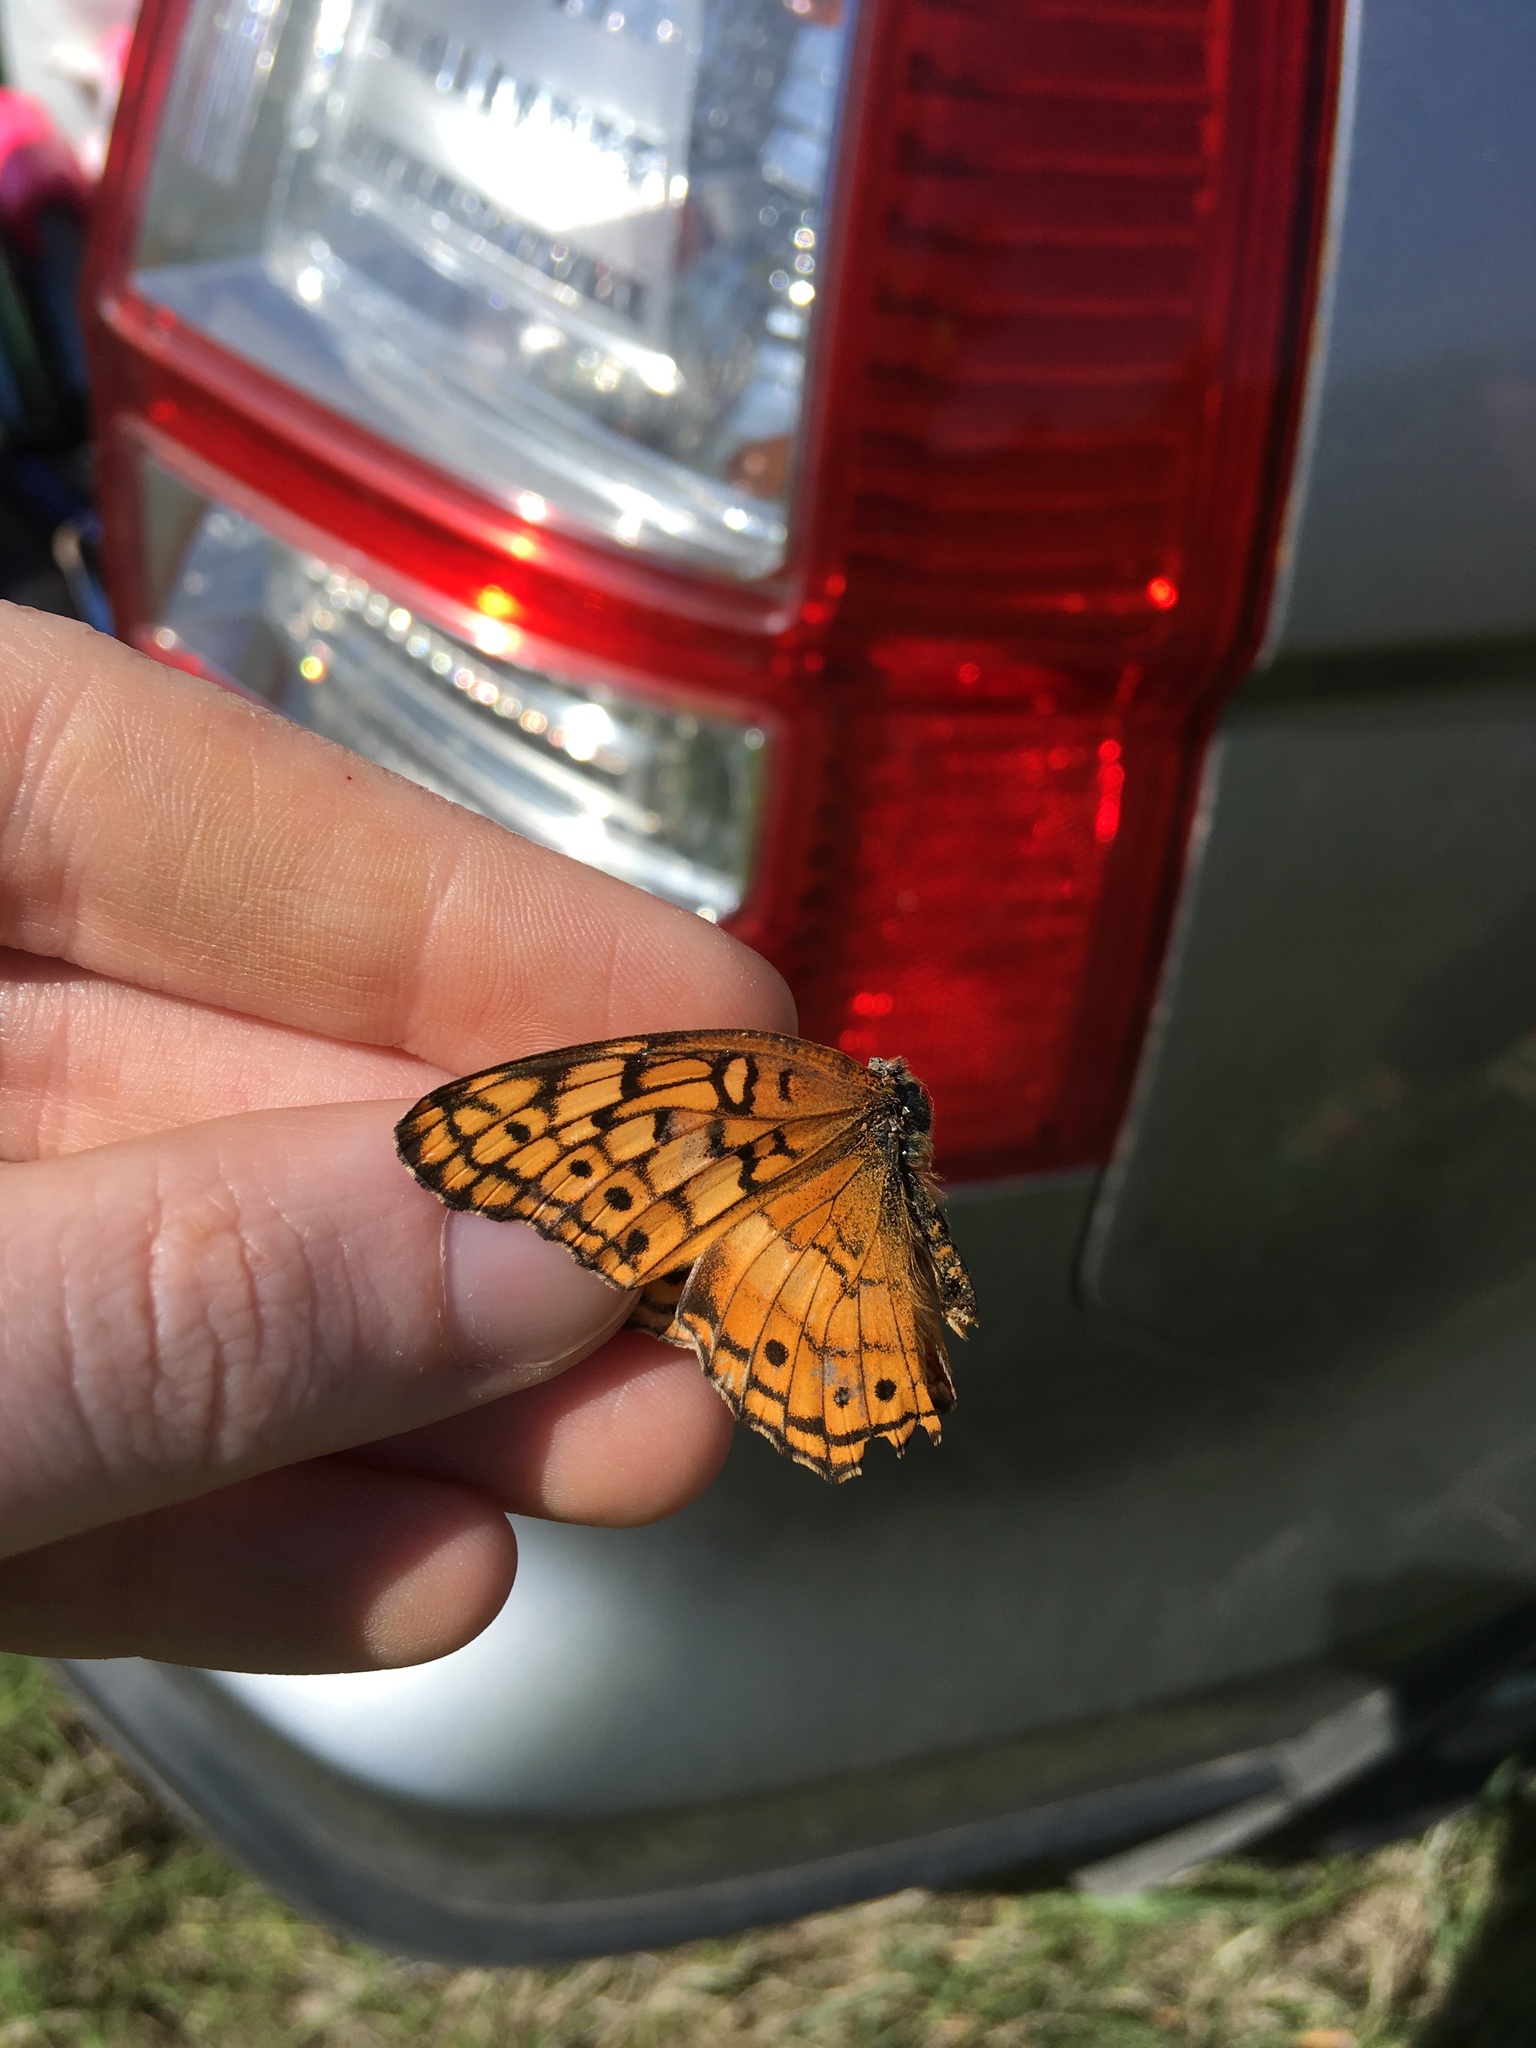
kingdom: Animalia
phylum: Arthropoda
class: Insecta
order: Lepidoptera
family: Nymphalidae
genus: Euptoieta
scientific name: Euptoieta claudia
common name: Variegated fritillary
